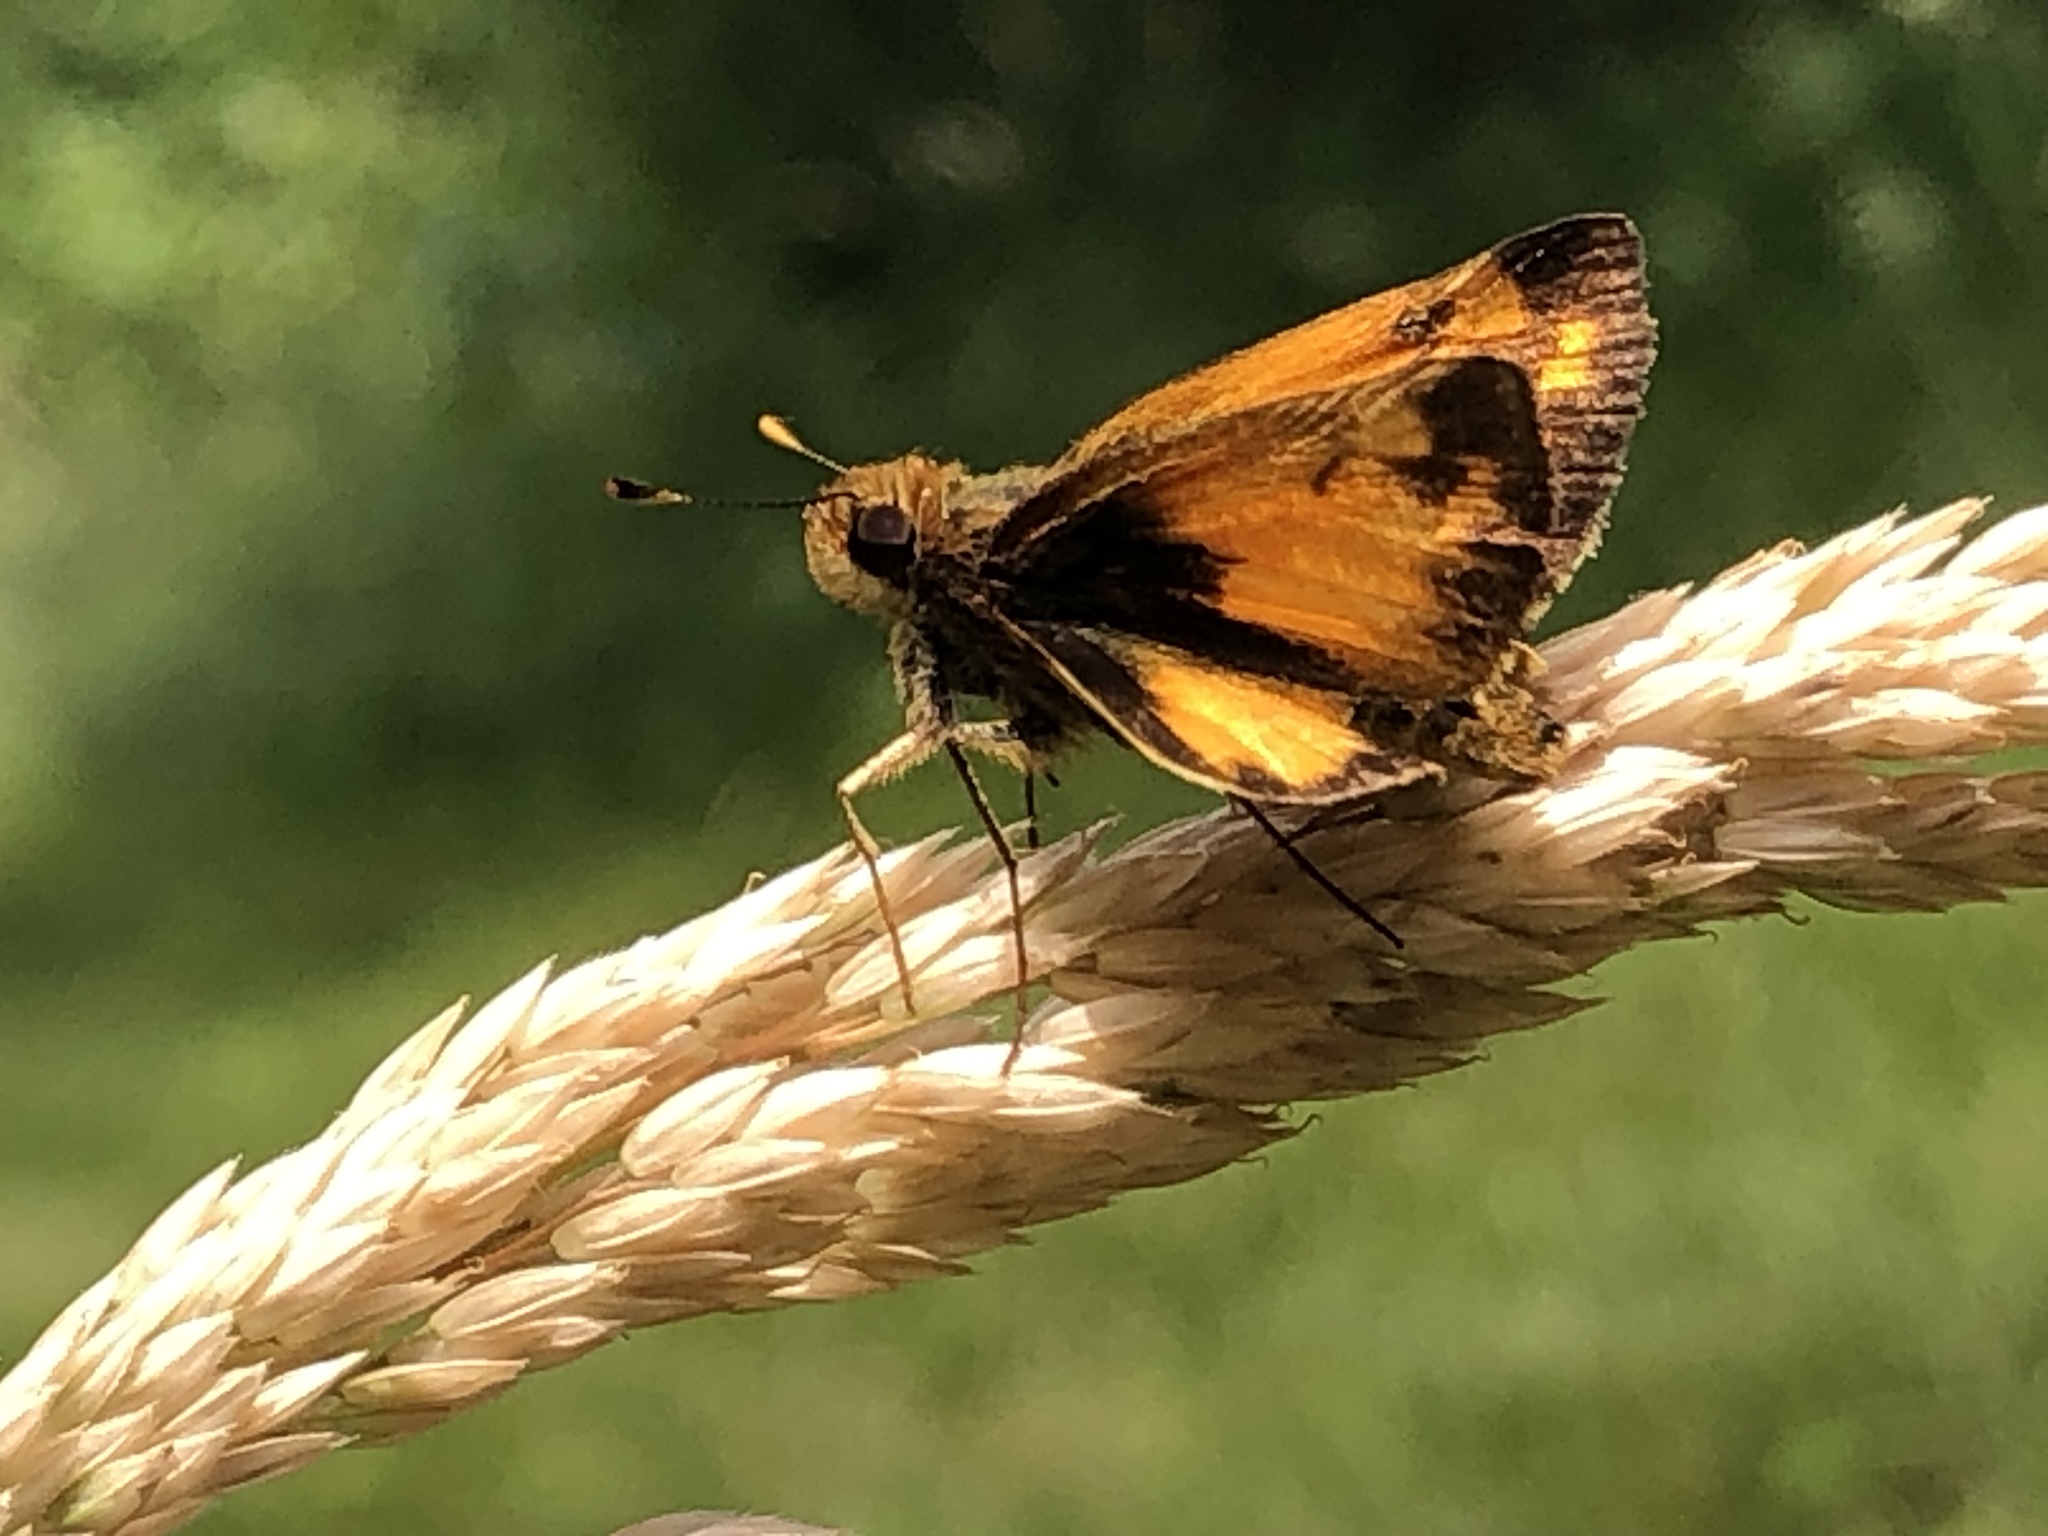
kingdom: Animalia
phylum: Arthropoda
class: Insecta
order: Lepidoptera
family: Hesperiidae
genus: Lon
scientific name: Lon zabulon
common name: Zabulon skipper
